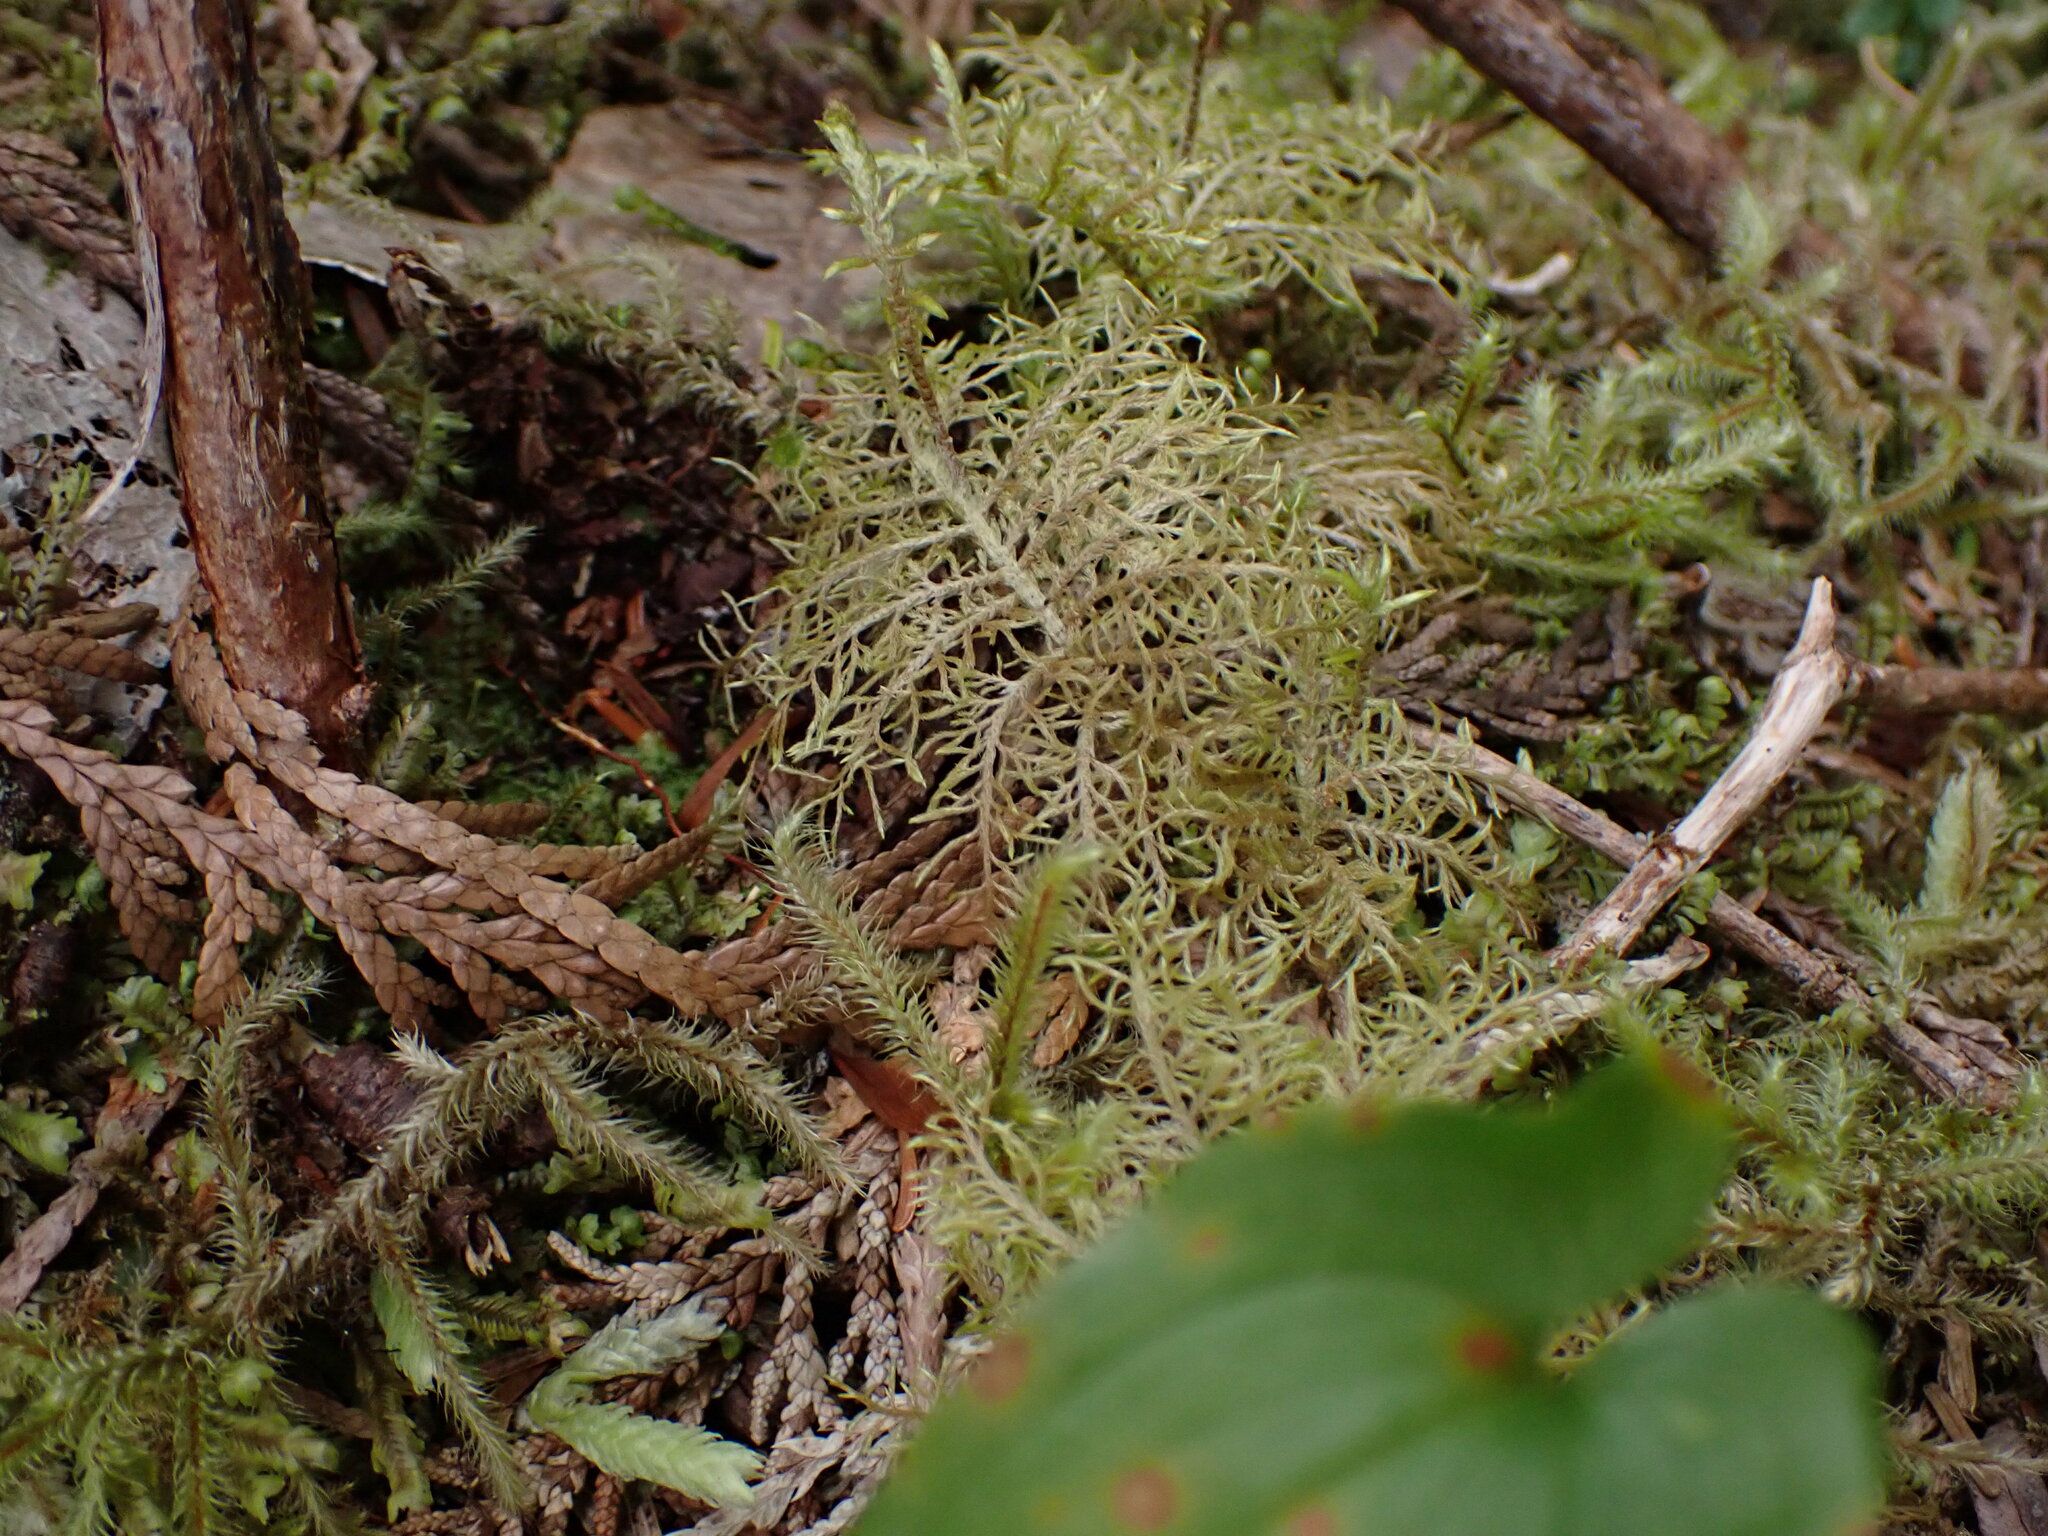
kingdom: Plantae
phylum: Bryophyta
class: Bryopsida
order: Hypnales
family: Hylocomiaceae
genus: Hylocomium
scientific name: Hylocomium splendens
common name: Stairstep moss
